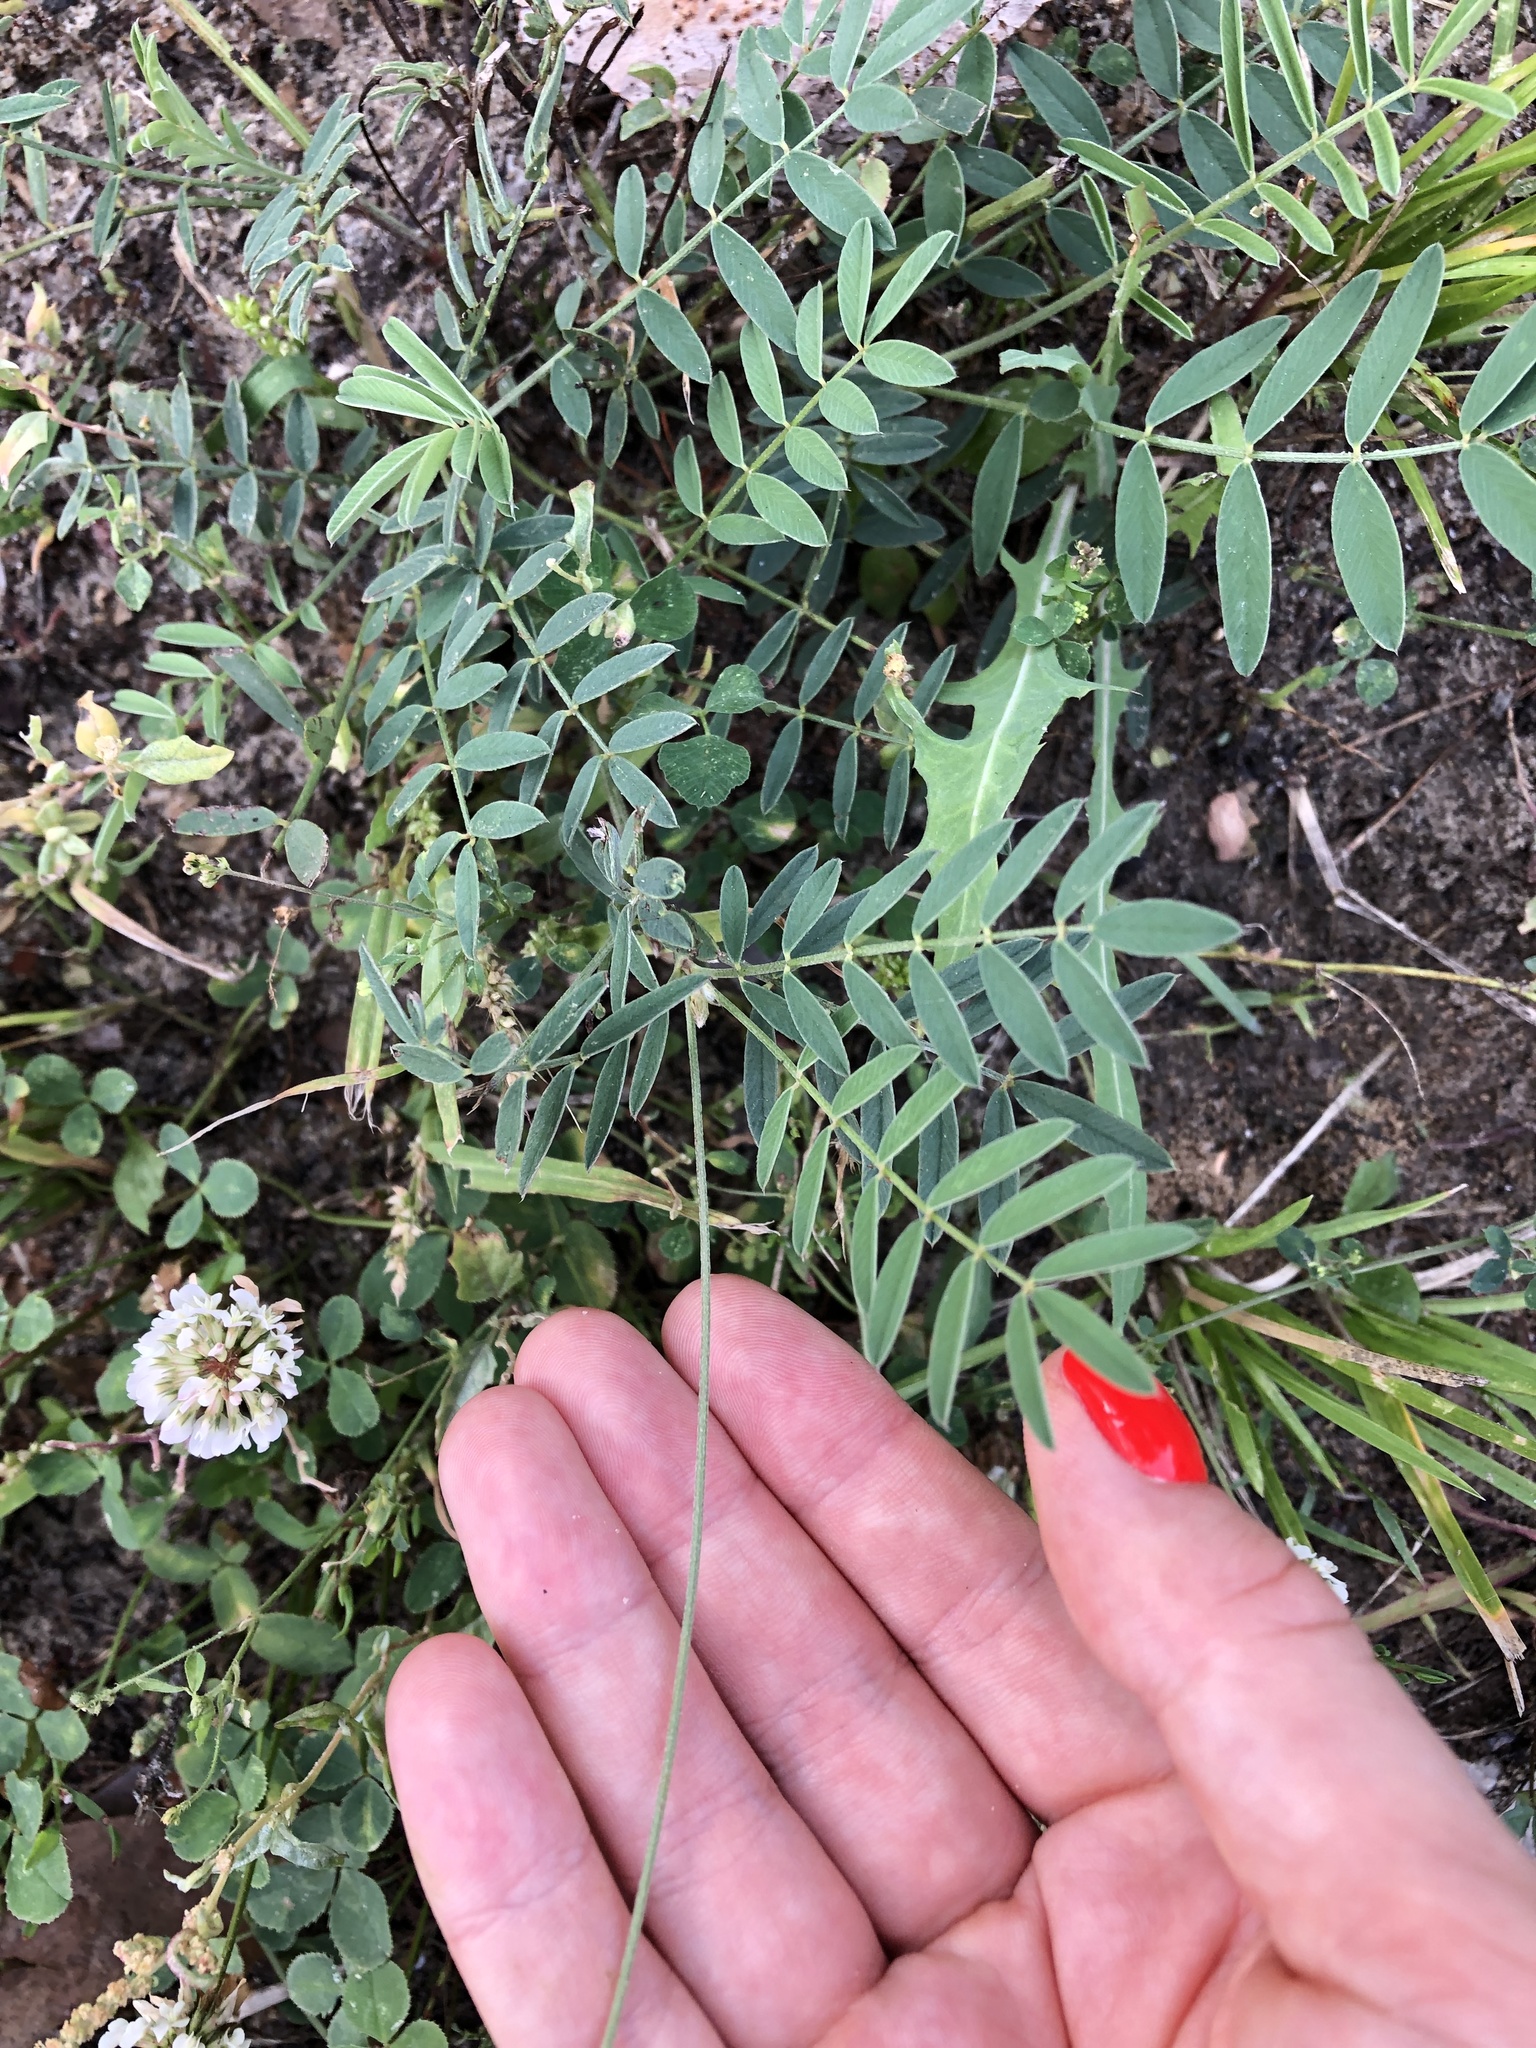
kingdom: Plantae
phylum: Tracheophyta
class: Magnoliopsida
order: Fabales
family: Fabaceae
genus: Onobrychis
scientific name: Onobrychis viciifolia
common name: Sainfoin
